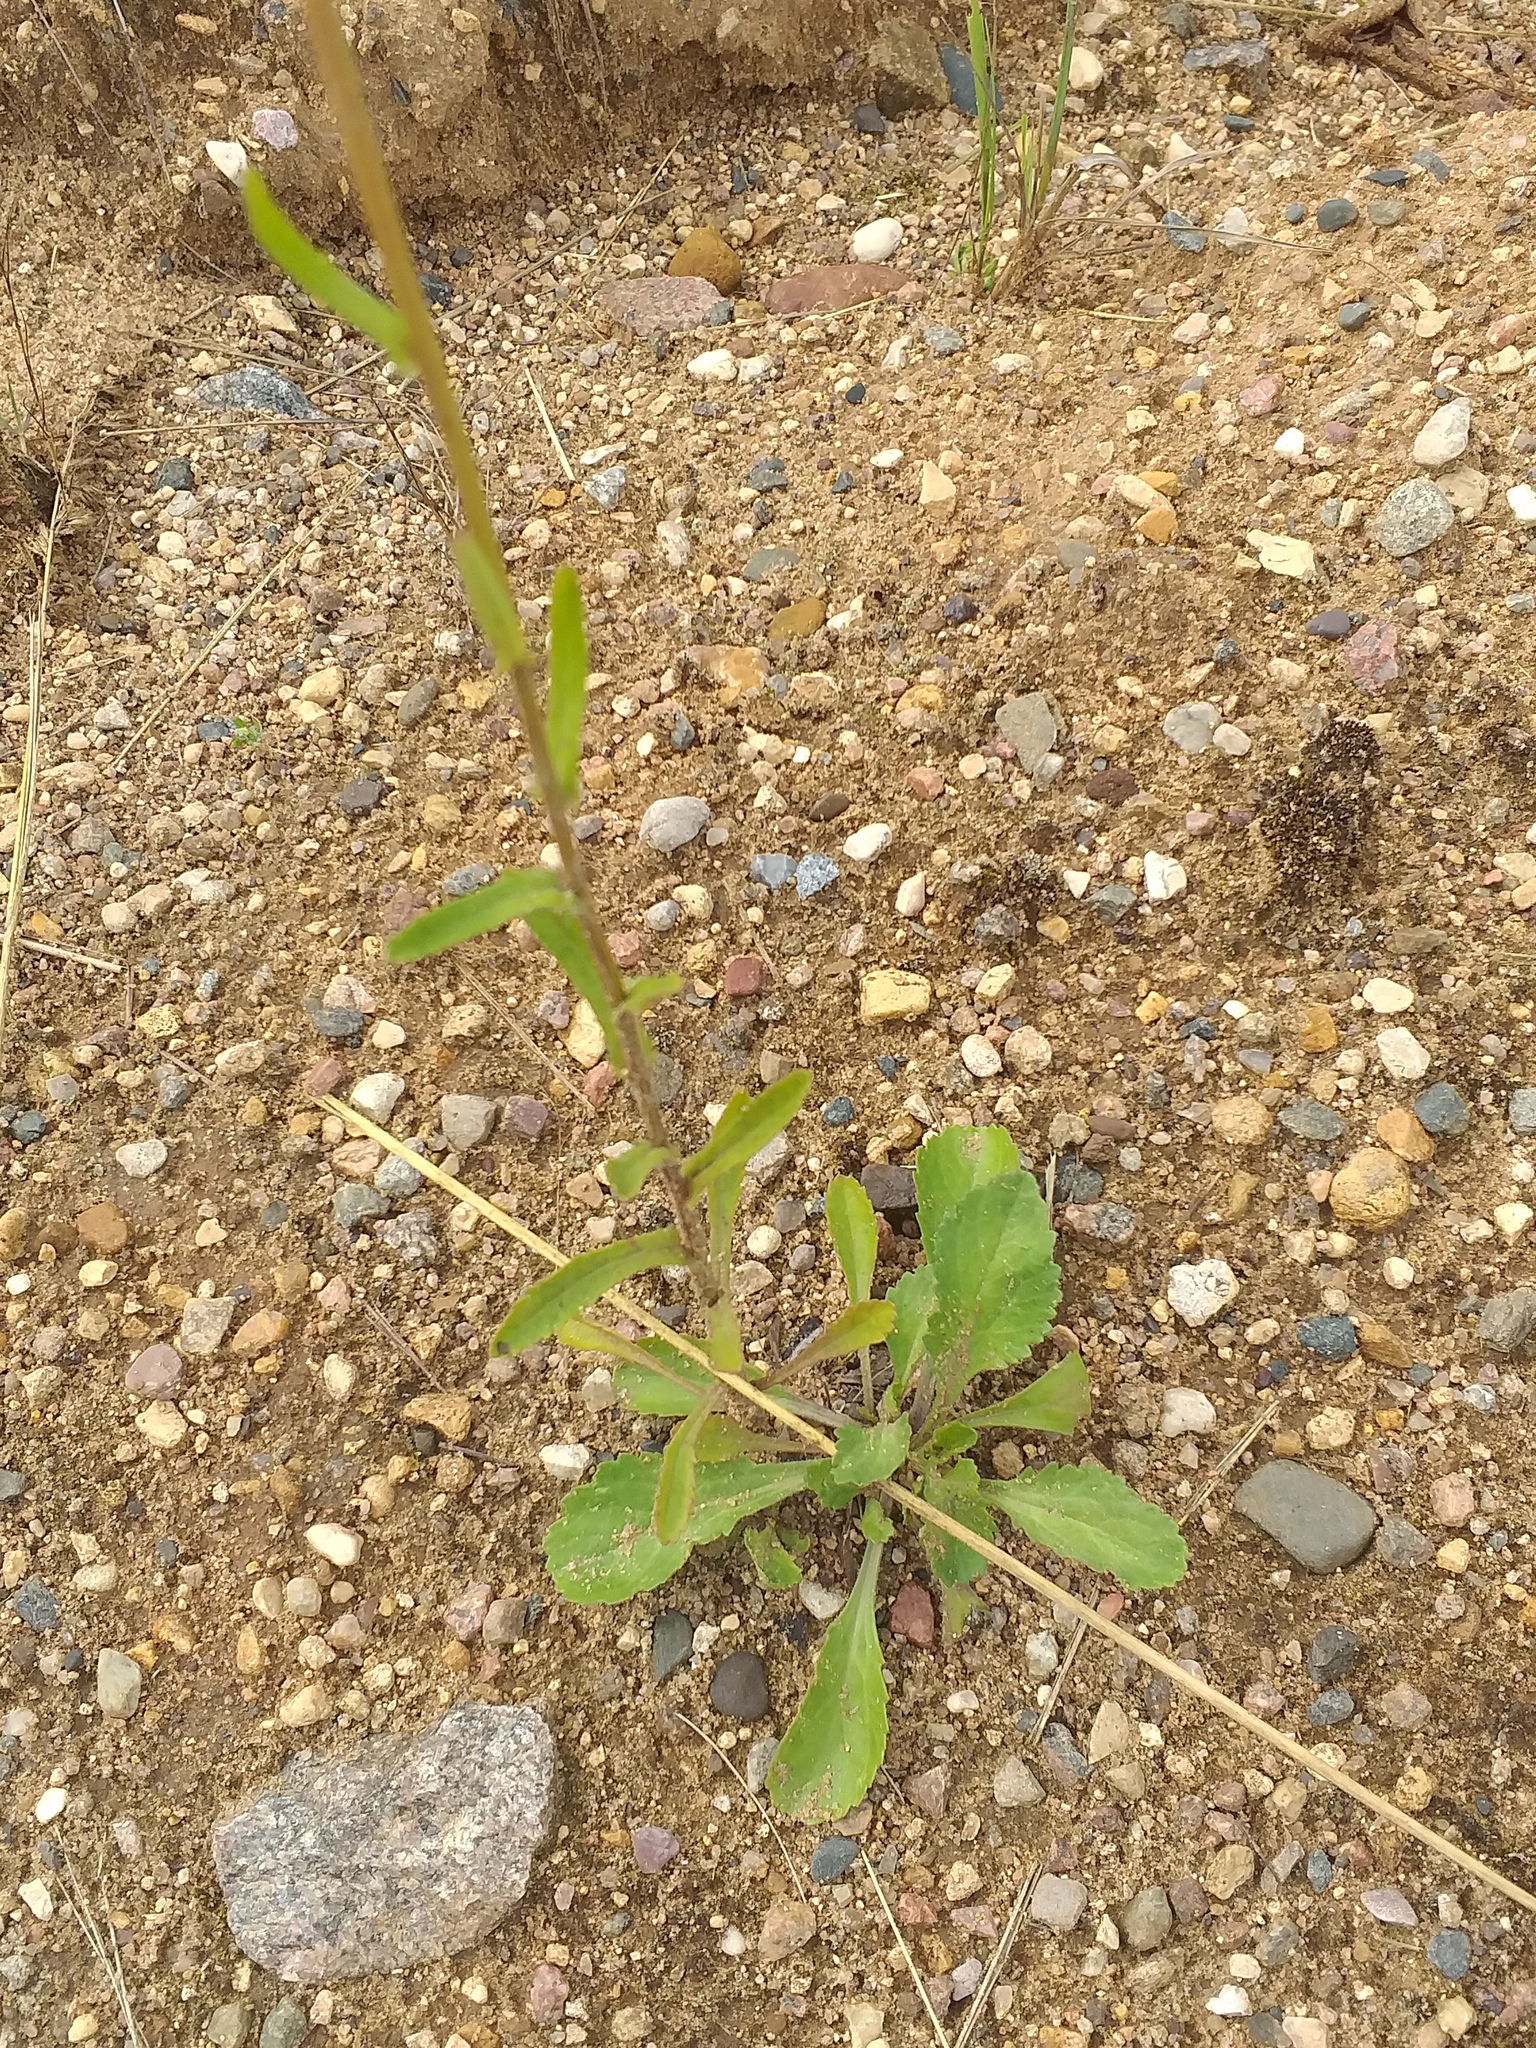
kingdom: Plantae
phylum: Tracheophyta
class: Magnoliopsida
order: Asterales
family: Asteraceae
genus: Leucanthemum
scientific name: Leucanthemum vulgare
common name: Oxeye daisy
